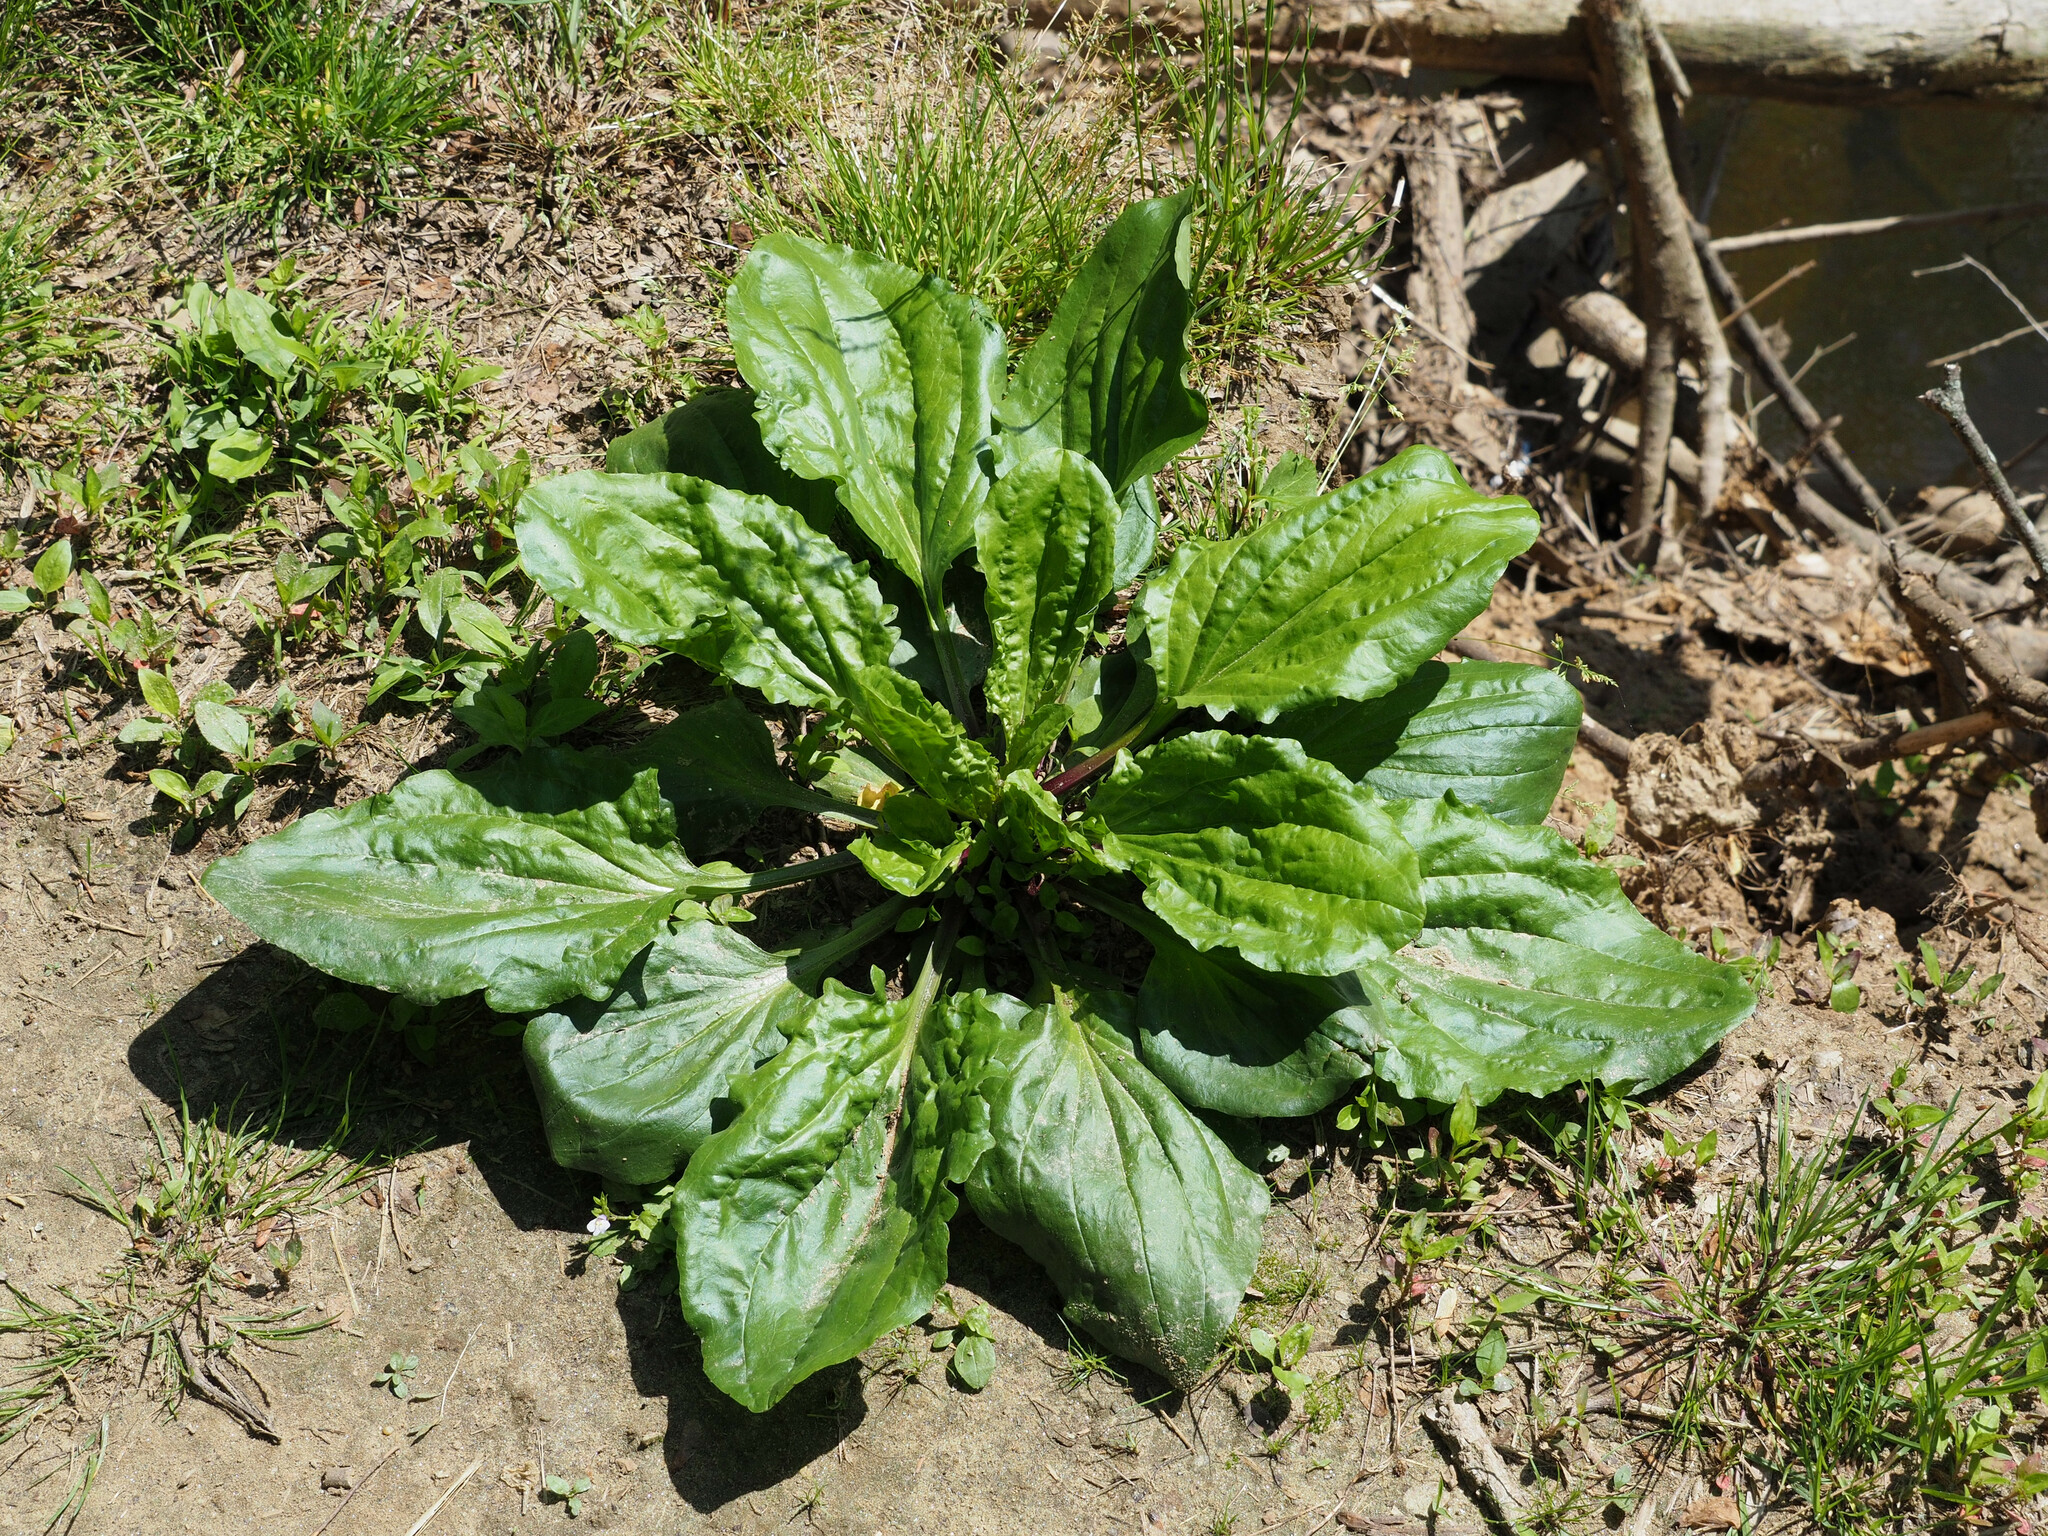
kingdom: Plantae
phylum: Tracheophyta
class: Magnoliopsida
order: Lamiales
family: Plantaginaceae
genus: Plantago
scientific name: Plantago rugelii
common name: American plantain
